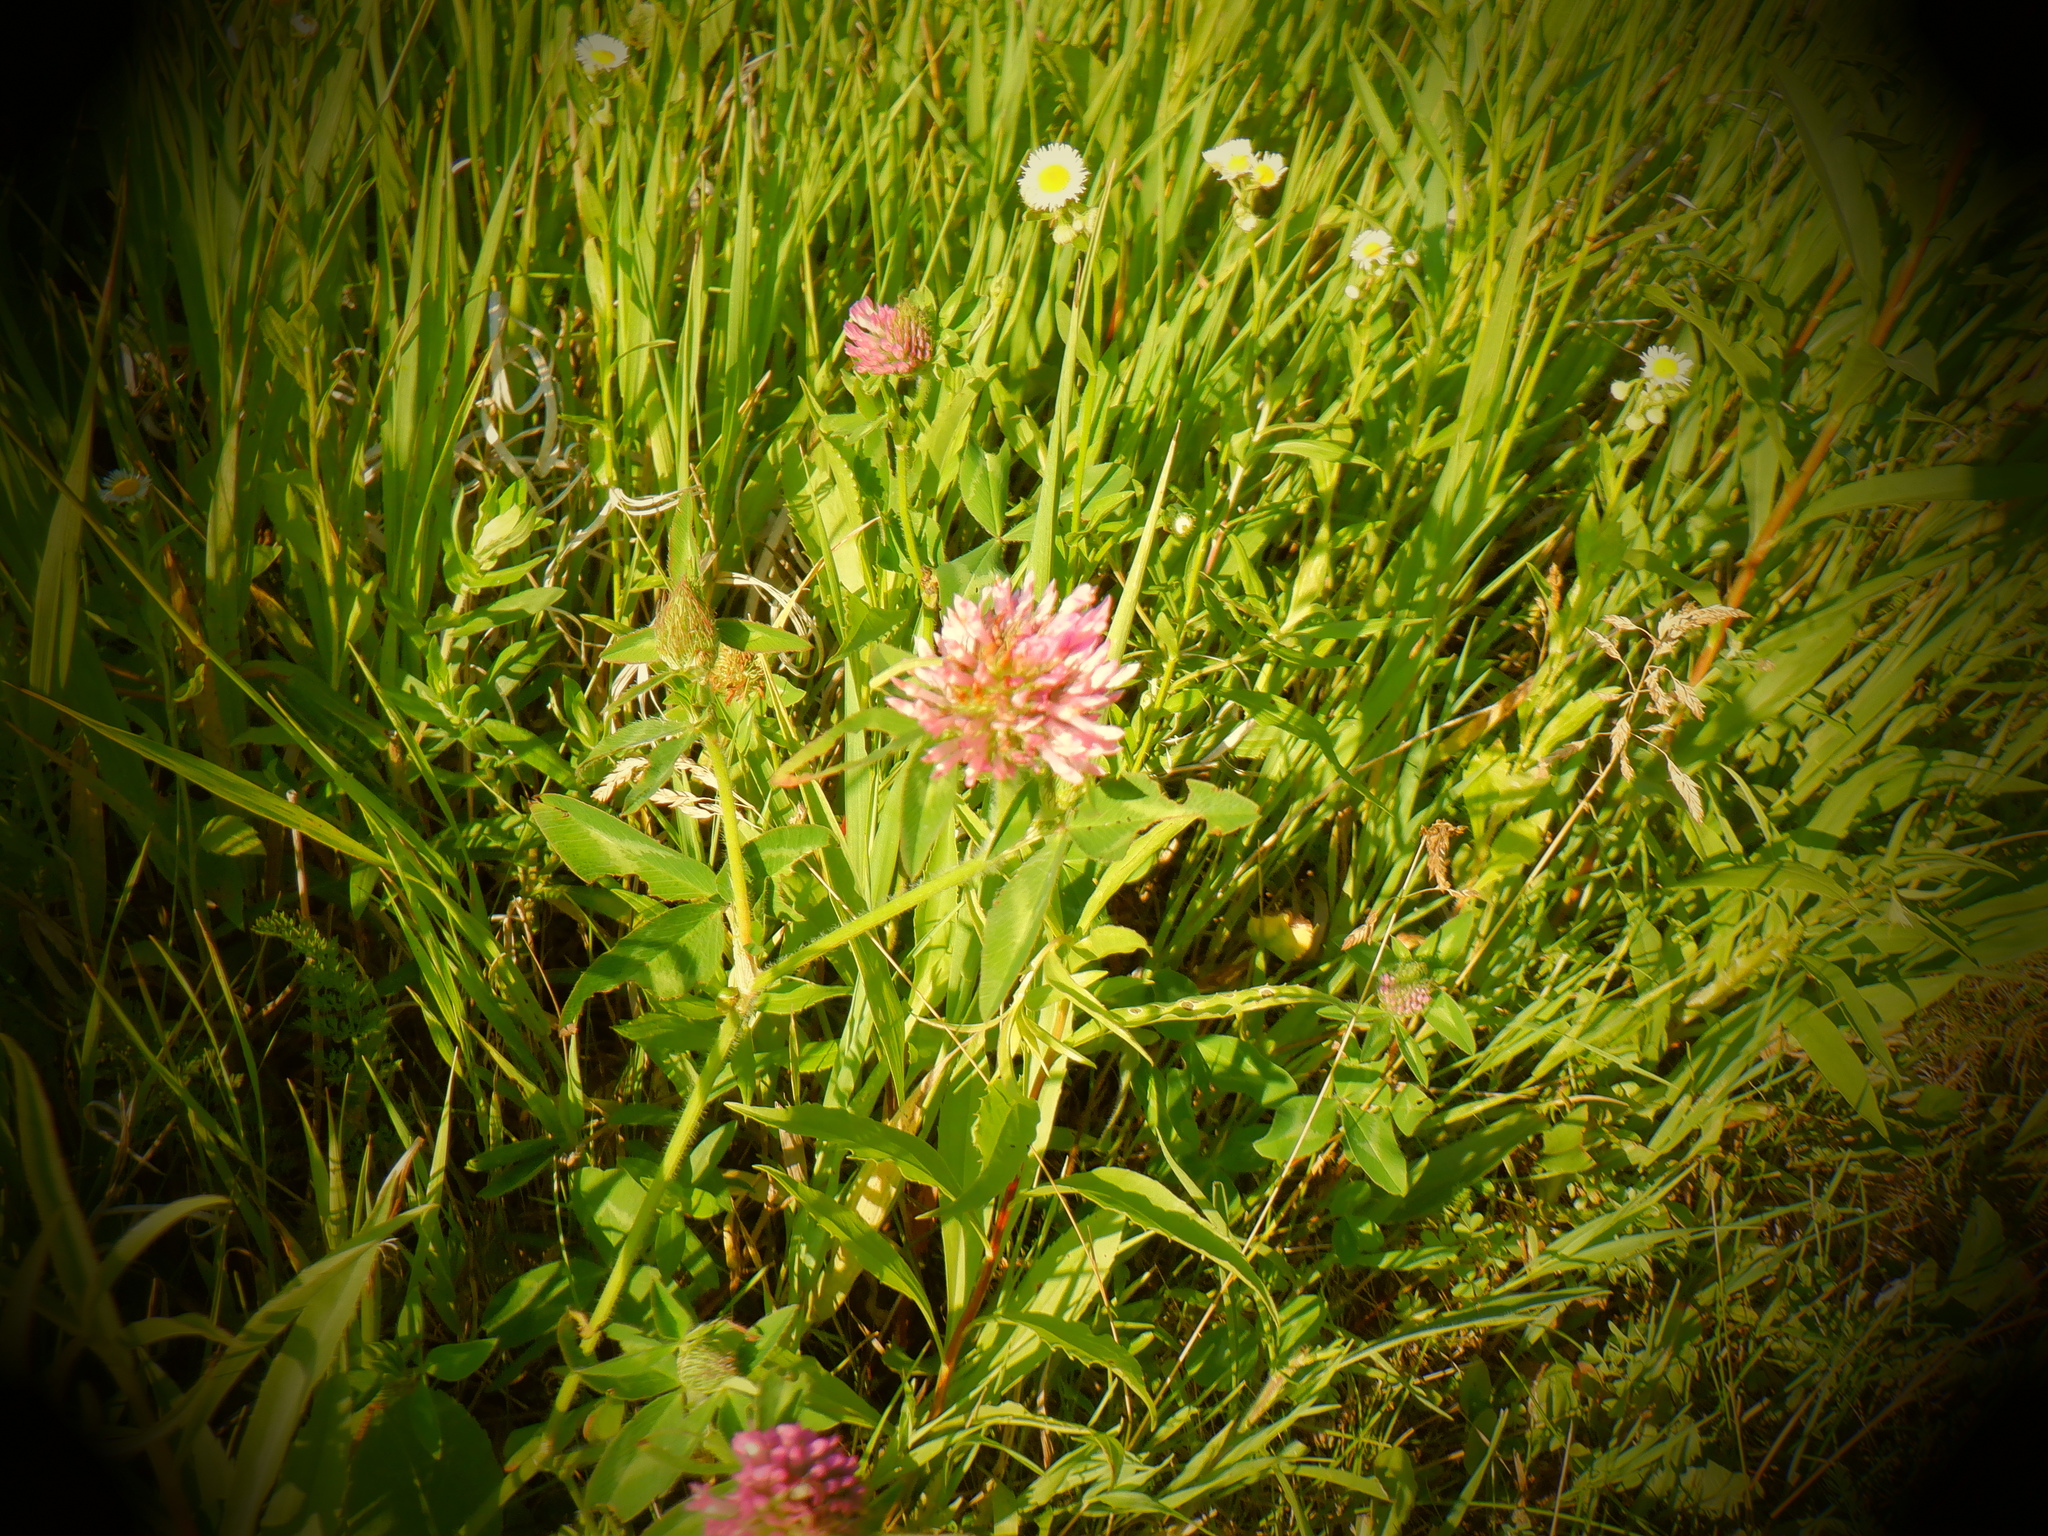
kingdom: Plantae
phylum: Tracheophyta
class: Magnoliopsida
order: Fabales
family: Fabaceae
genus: Trifolium
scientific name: Trifolium pratense
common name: Red clover
